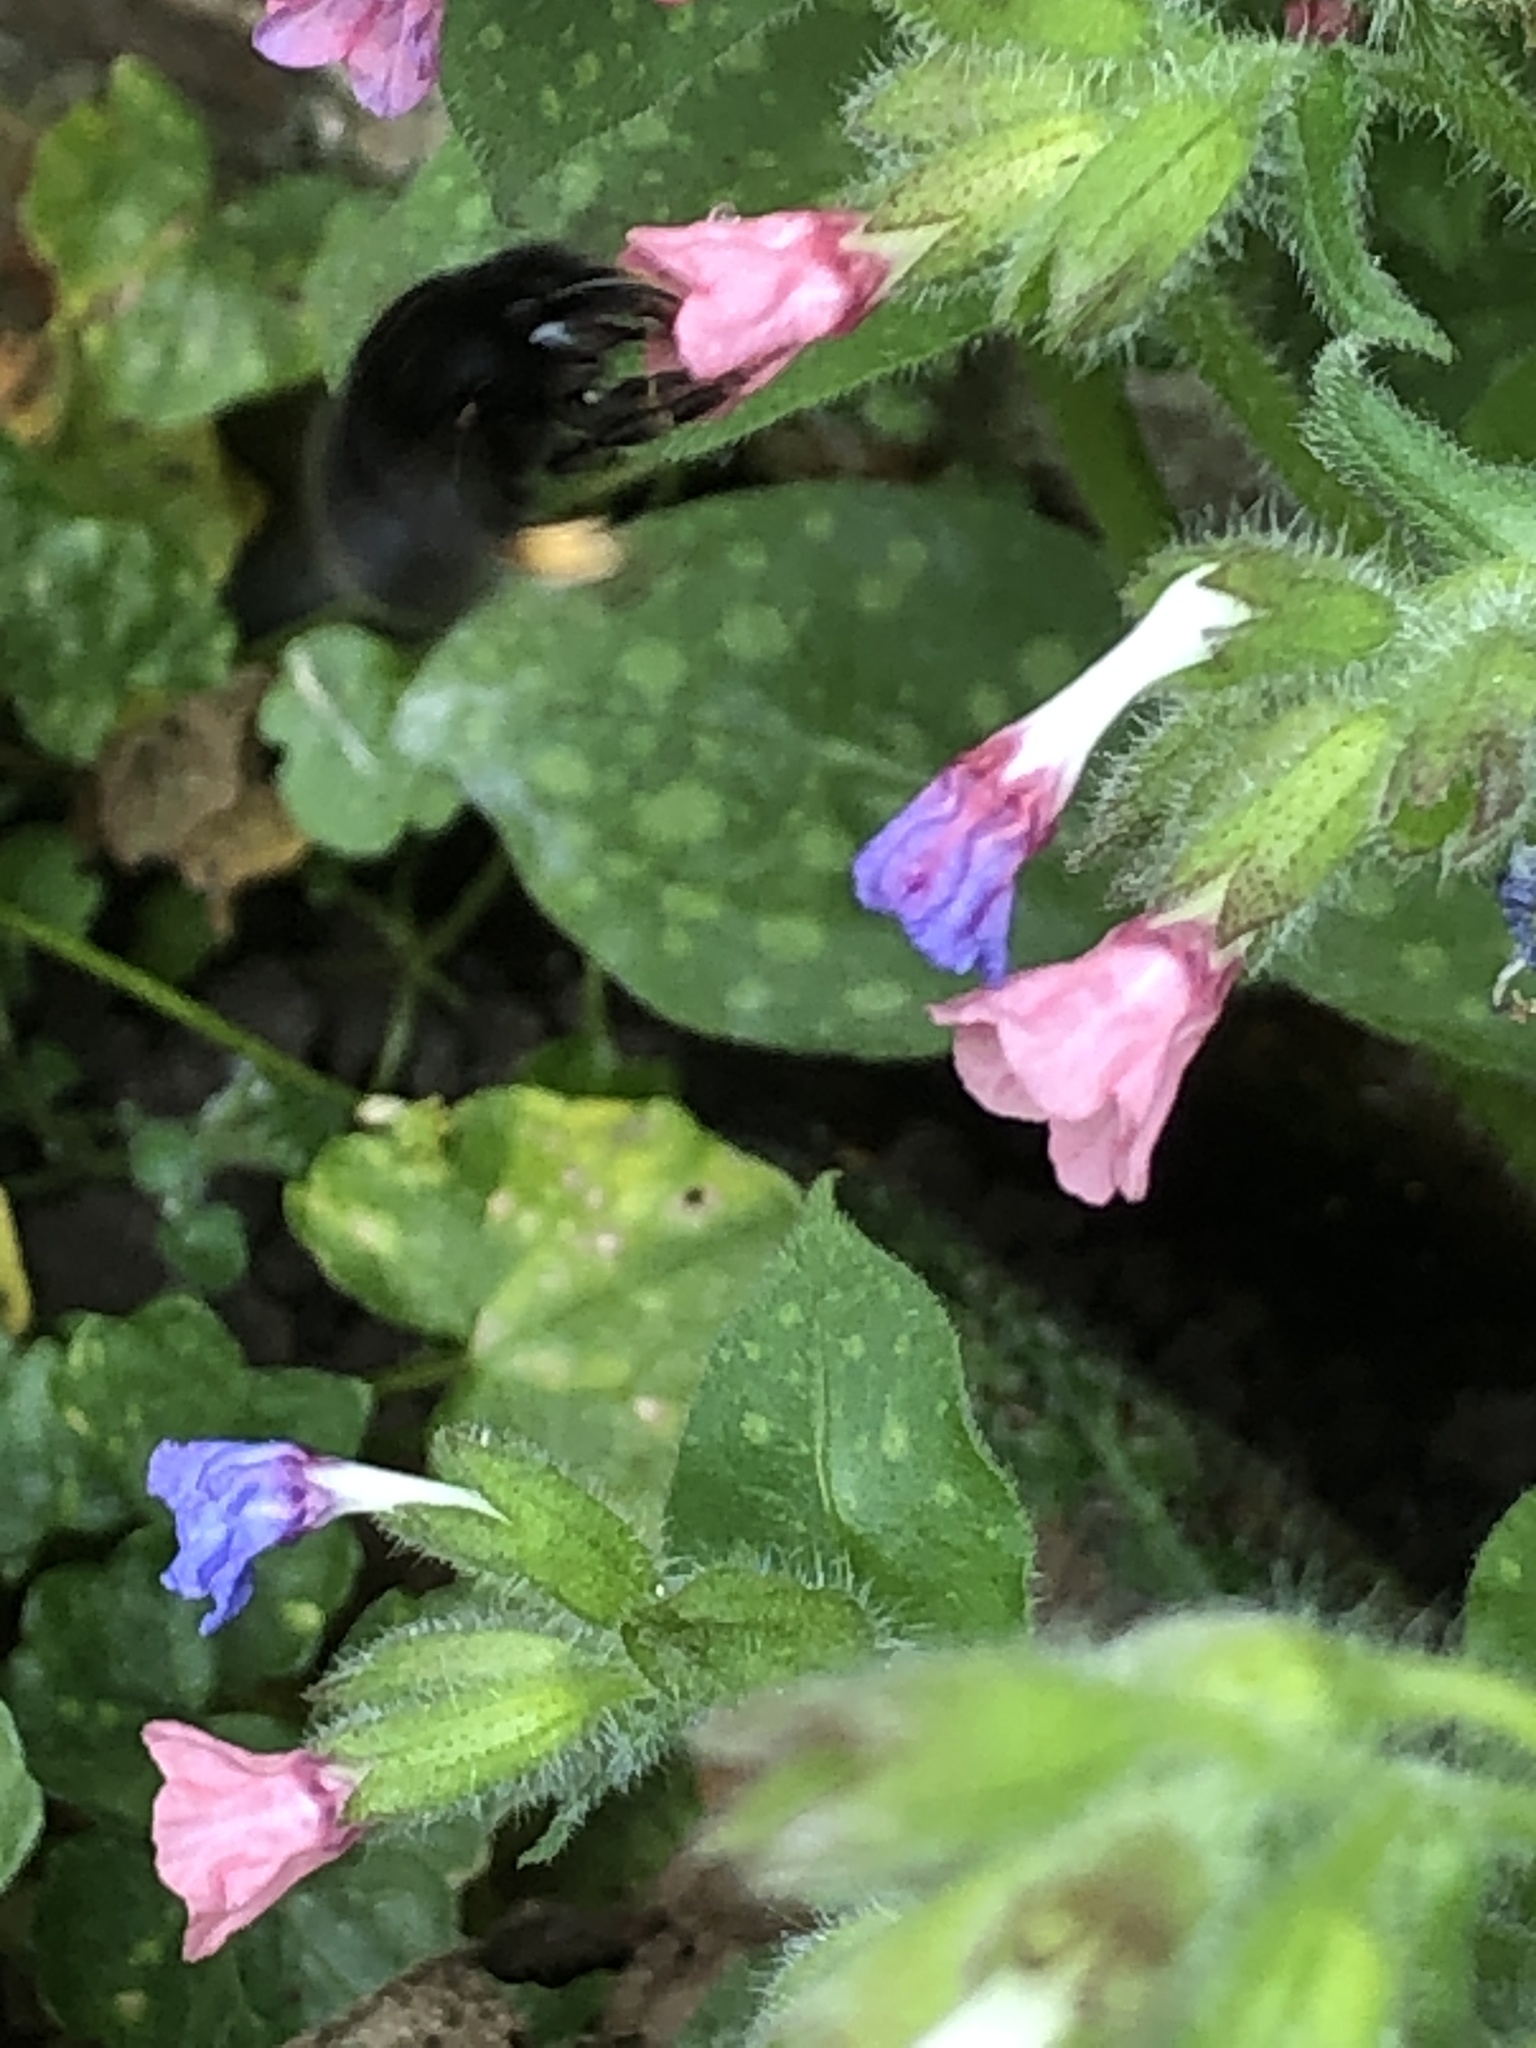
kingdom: Animalia
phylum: Arthropoda
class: Insecta
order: Hymenoptera
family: Apidae
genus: Anthophora
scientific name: Anthophora plumipes
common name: Hairy-footed flower bee
